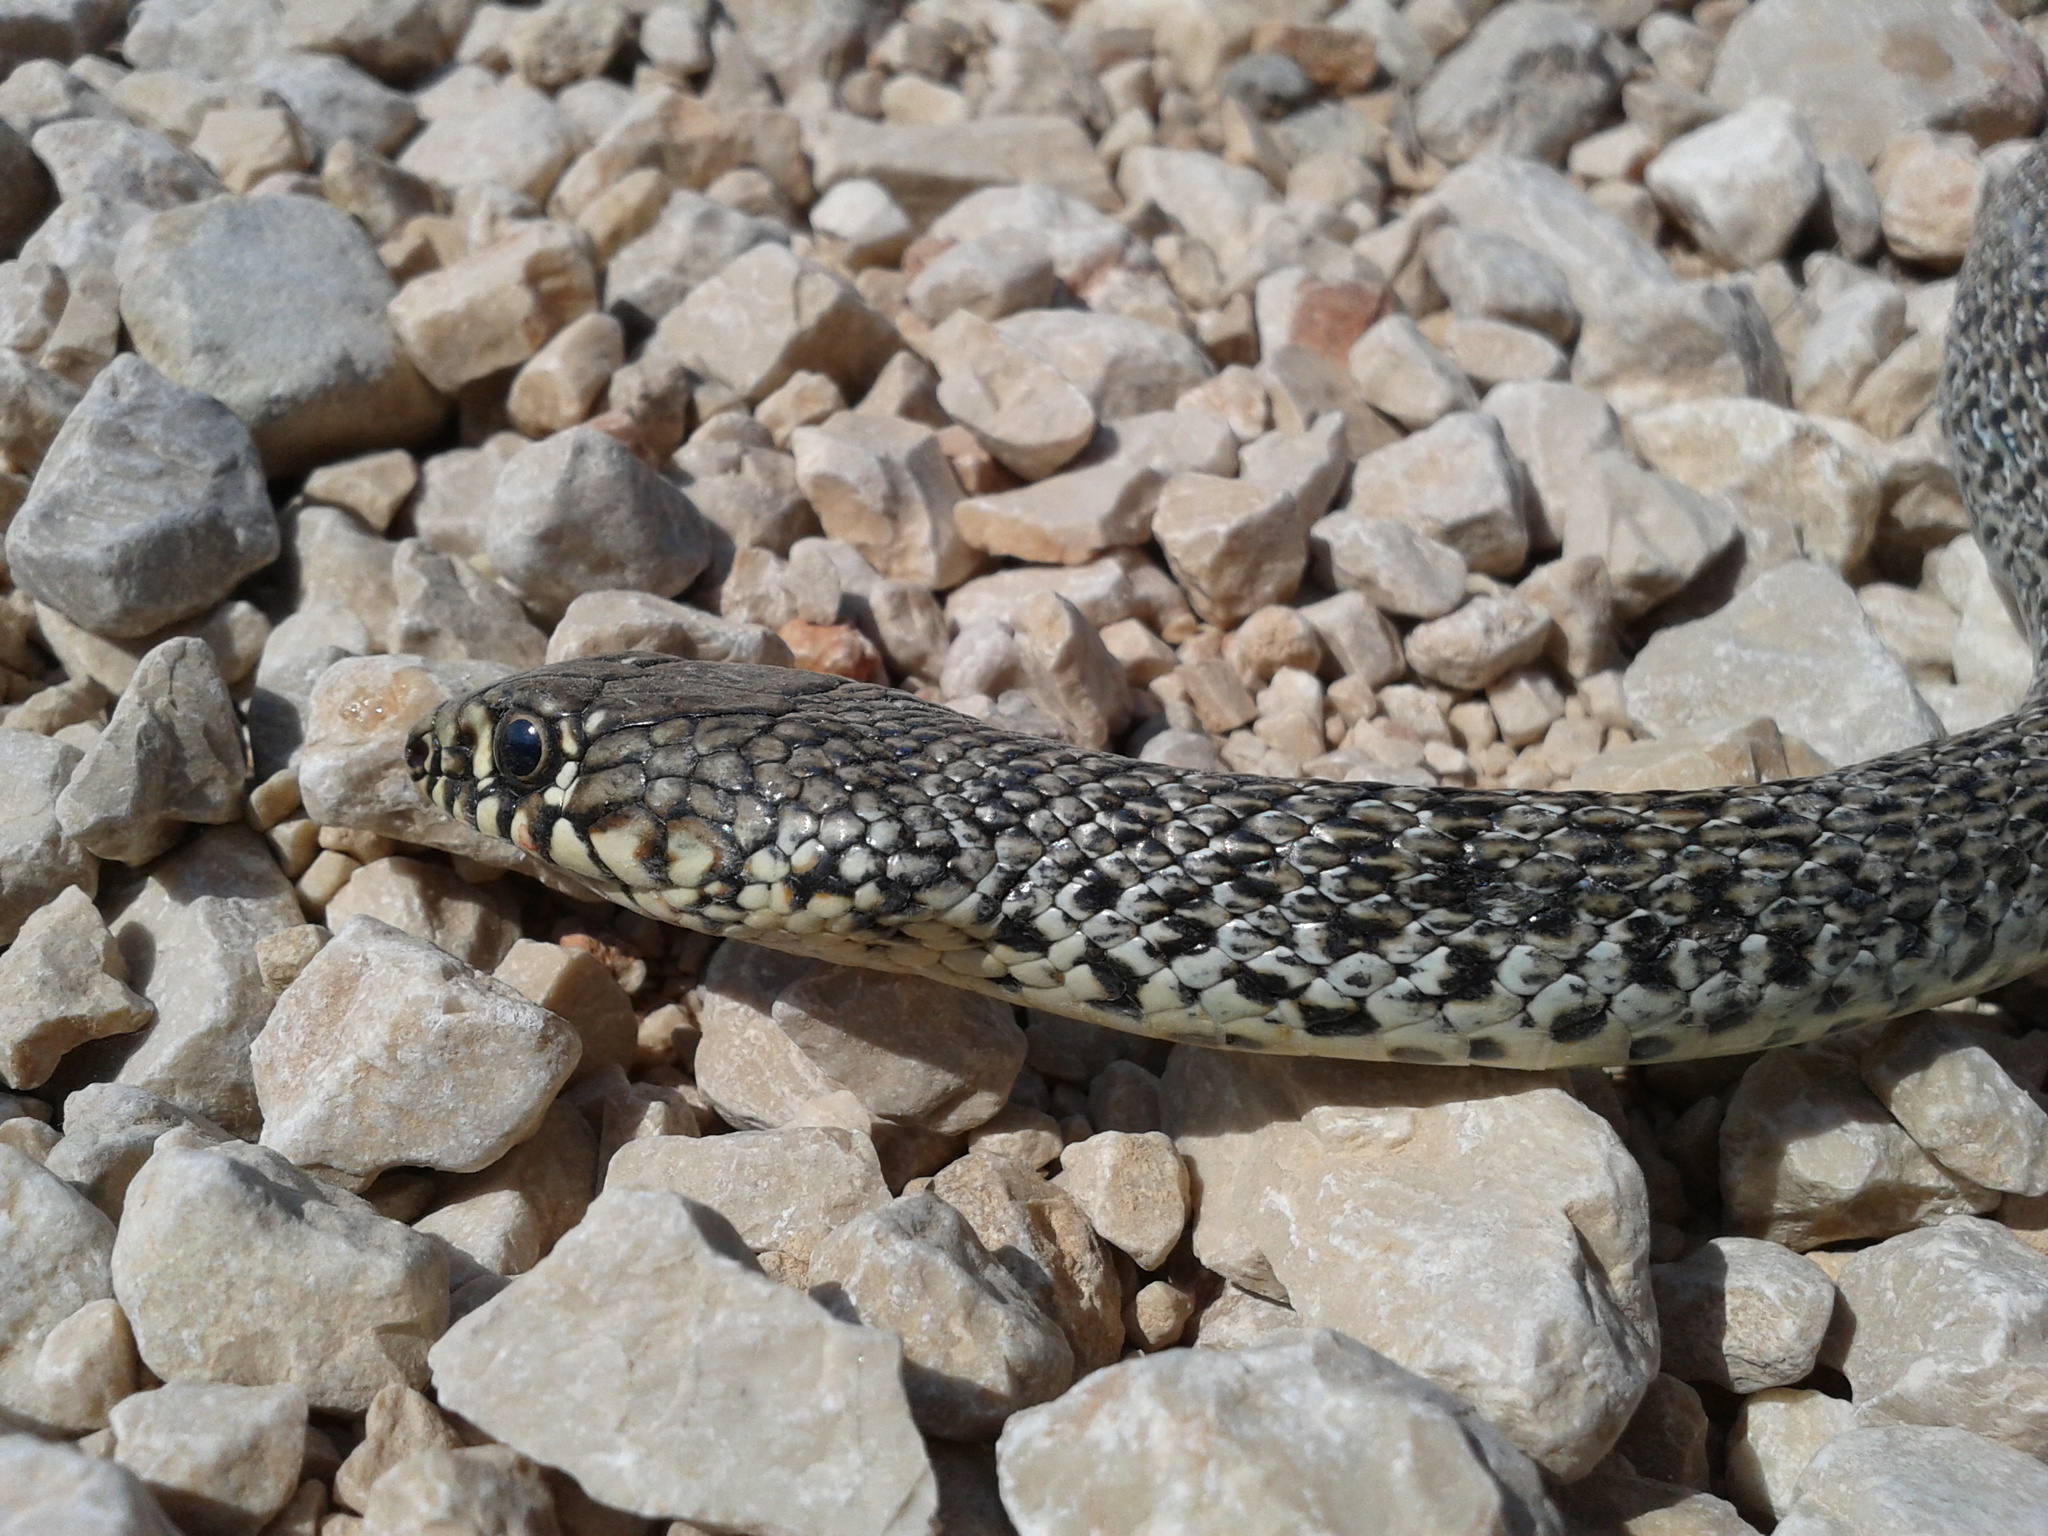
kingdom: Animalia
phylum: Chordata
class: Squamata
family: Colubridae
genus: Hierophis
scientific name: Hierophis gemonensis
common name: Balkan whip snake
